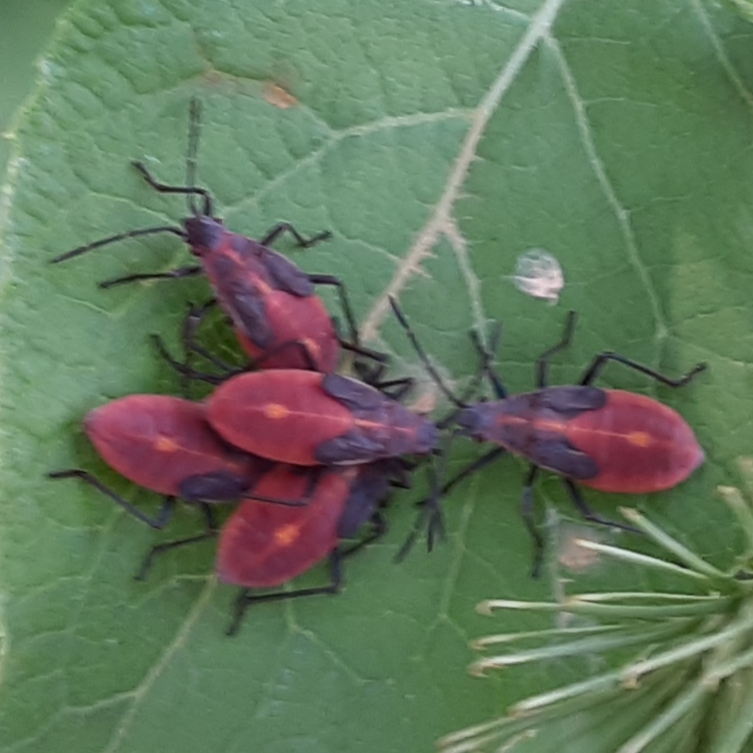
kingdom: Animalia
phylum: Arthropoda
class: Insecta
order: Hemiptera
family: Rhopalidae
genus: Boisea
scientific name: Boisea trivittata
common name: Boxelder bug
